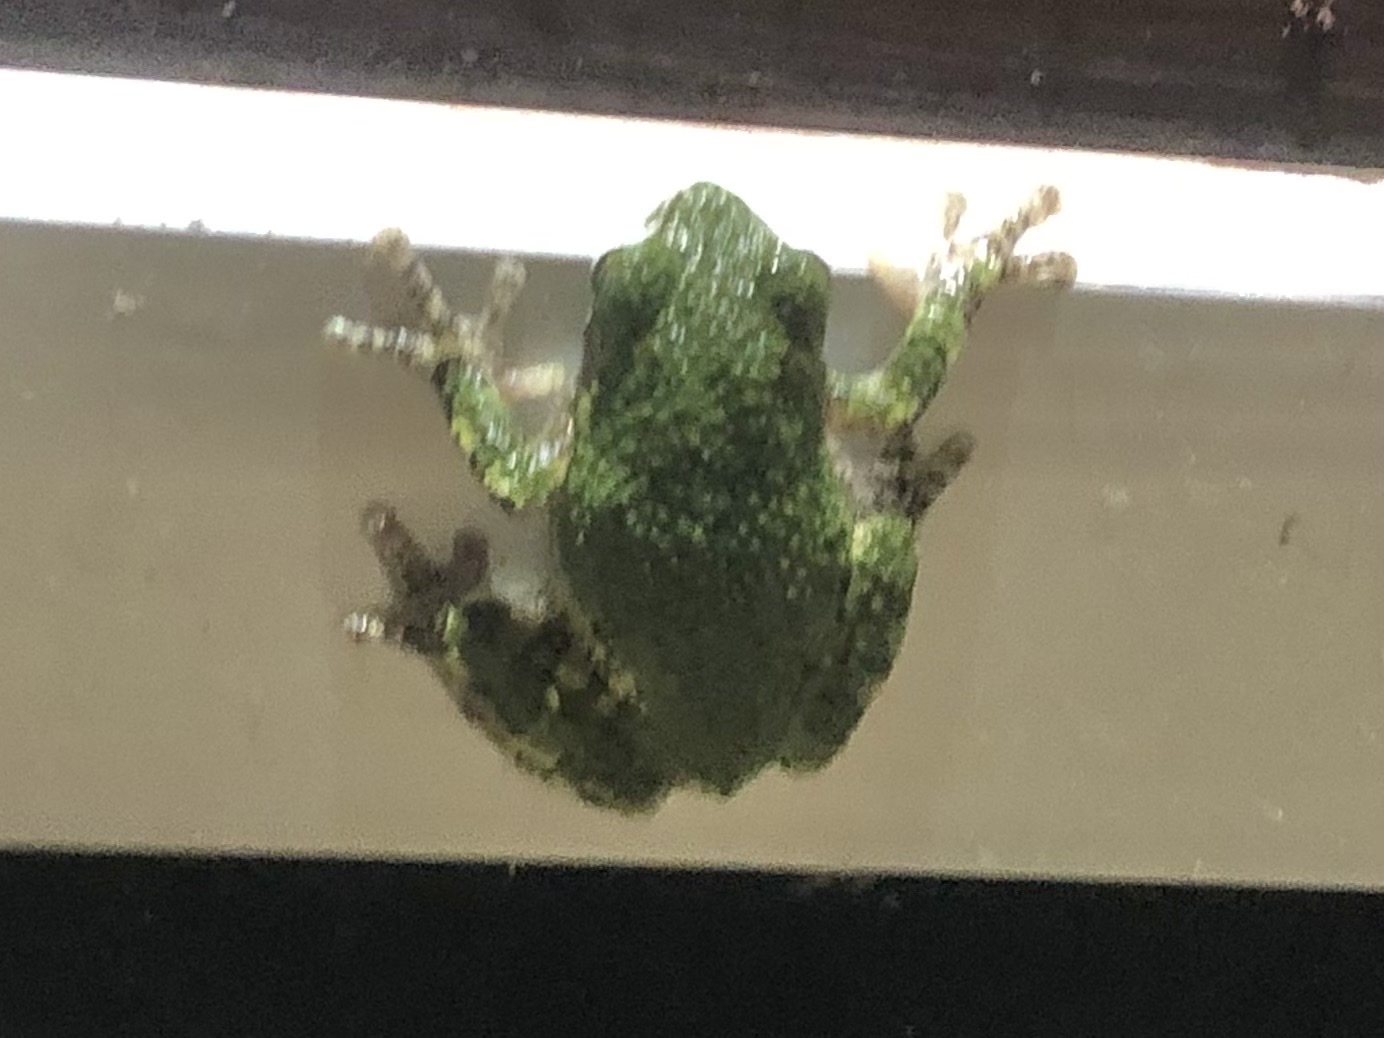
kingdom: Animalia
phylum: Chordata
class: Amphibia
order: Anura
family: Hylidae
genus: Dryophytes
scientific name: Dryophytes versicolor
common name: Gray treefrog
